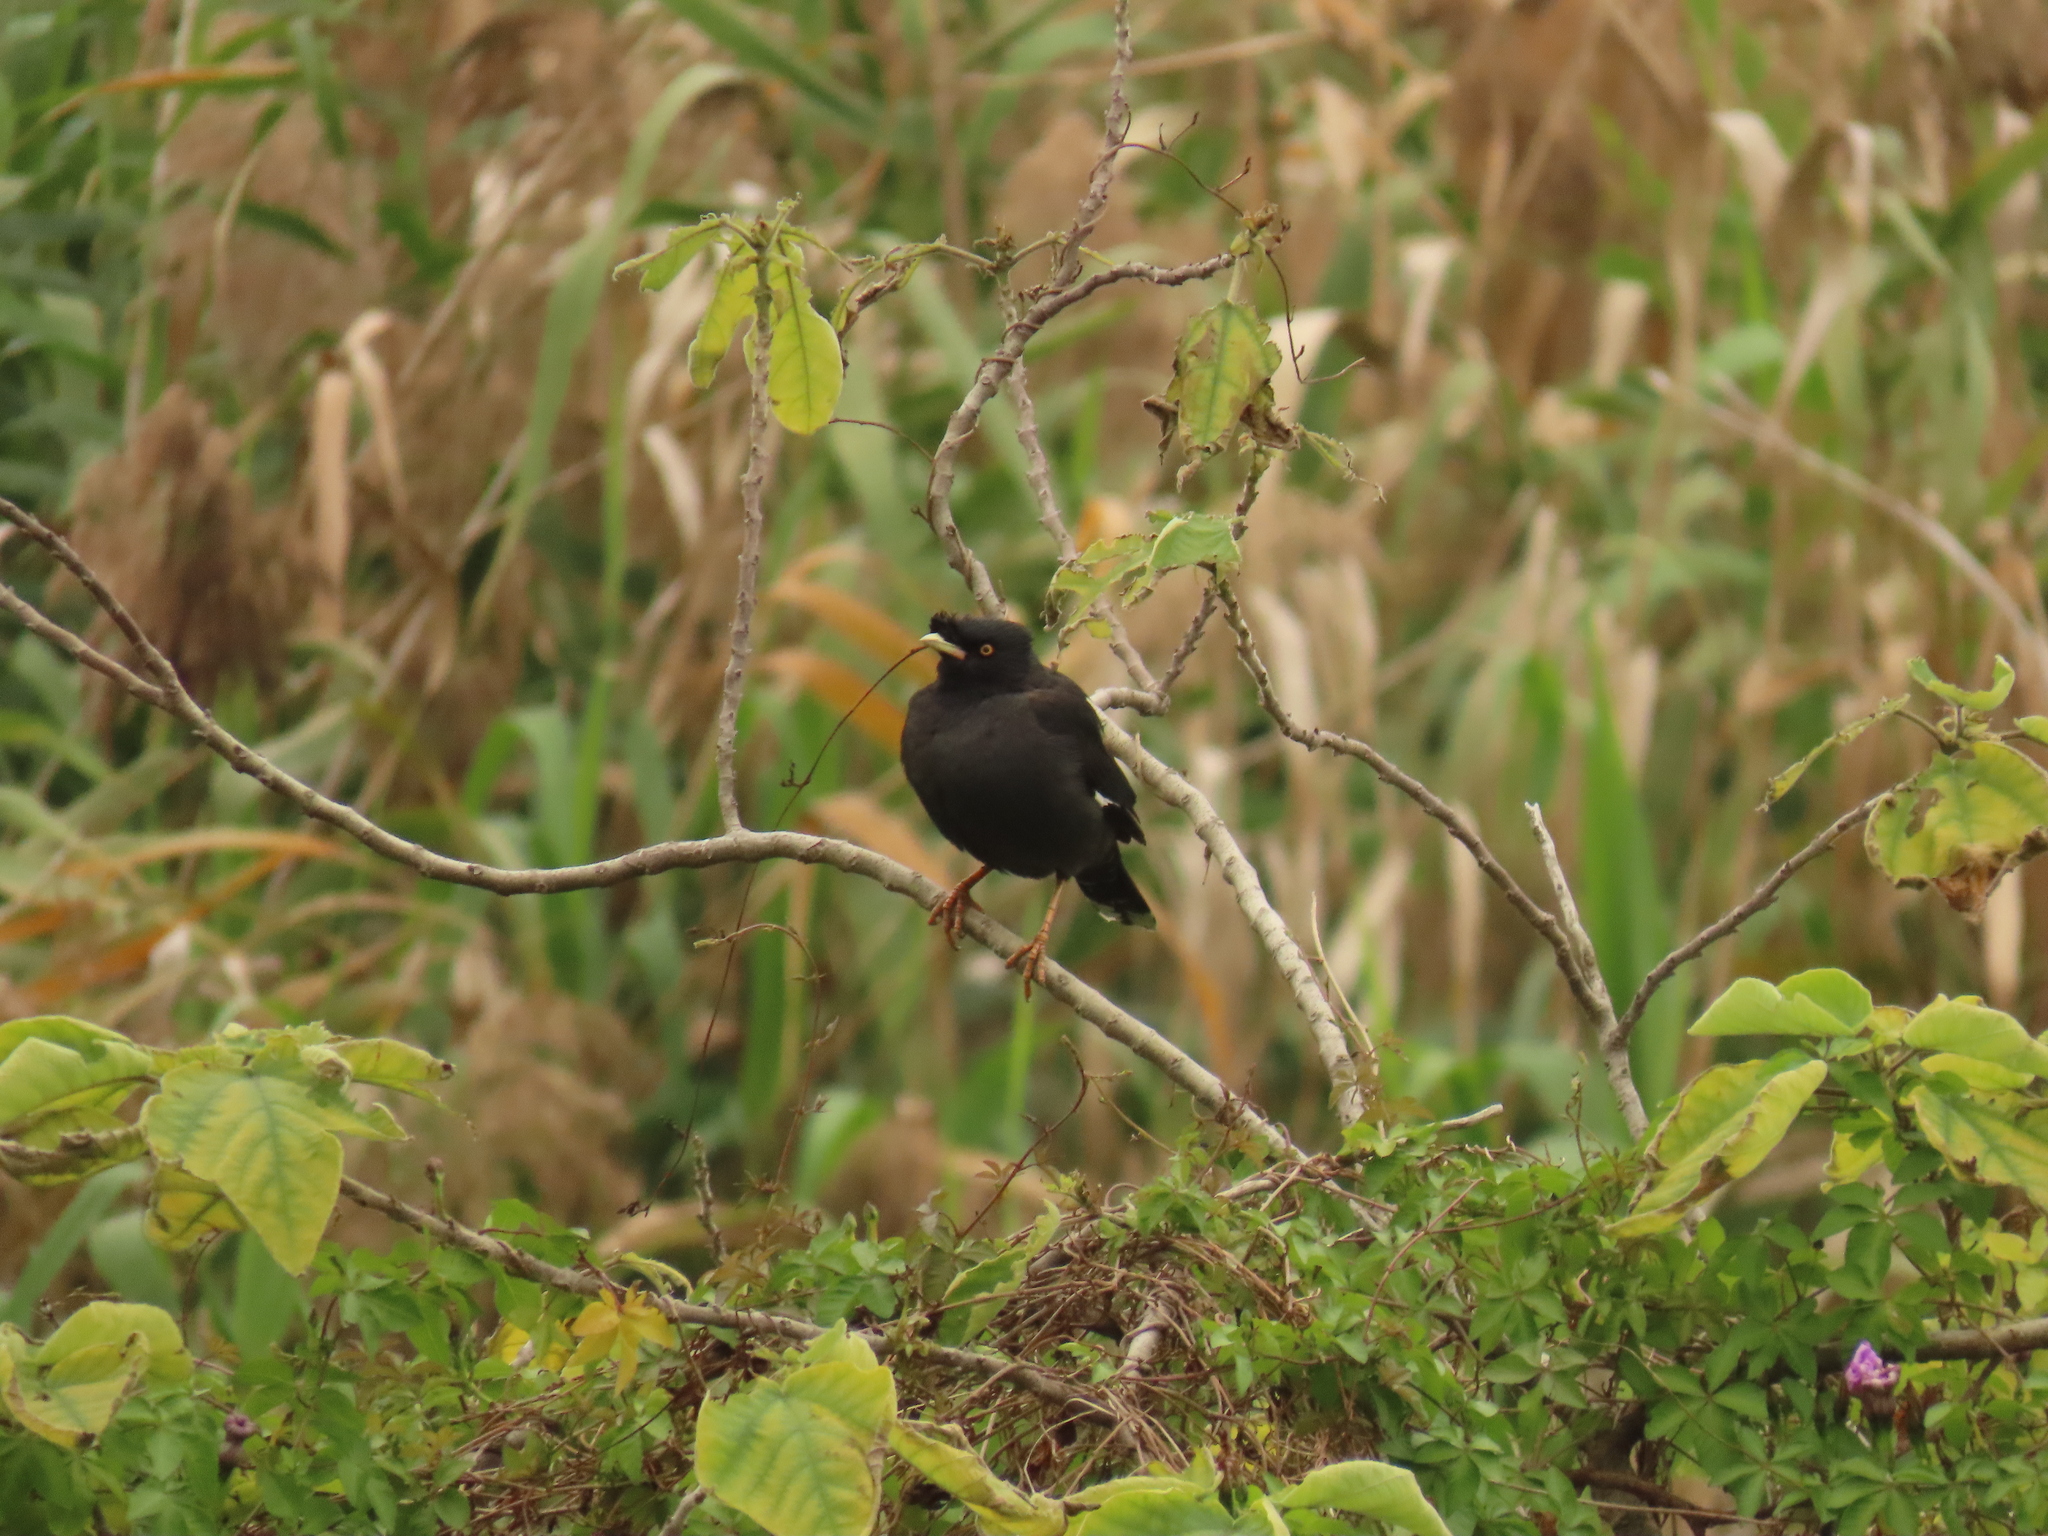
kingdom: Animalia
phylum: Chordata
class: Aves
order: Passeriformes
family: Sturnidae
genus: Acridotheres
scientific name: Acridotheres cristatellus
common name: Crested myna
